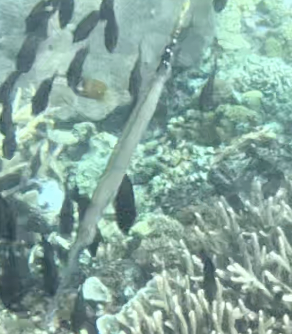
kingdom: Animalia
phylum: Chordata
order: Syngnathiformes
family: Aulostomidae
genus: Aulostomus
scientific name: Aulostomus chinensis
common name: Chinese trumpetfish
